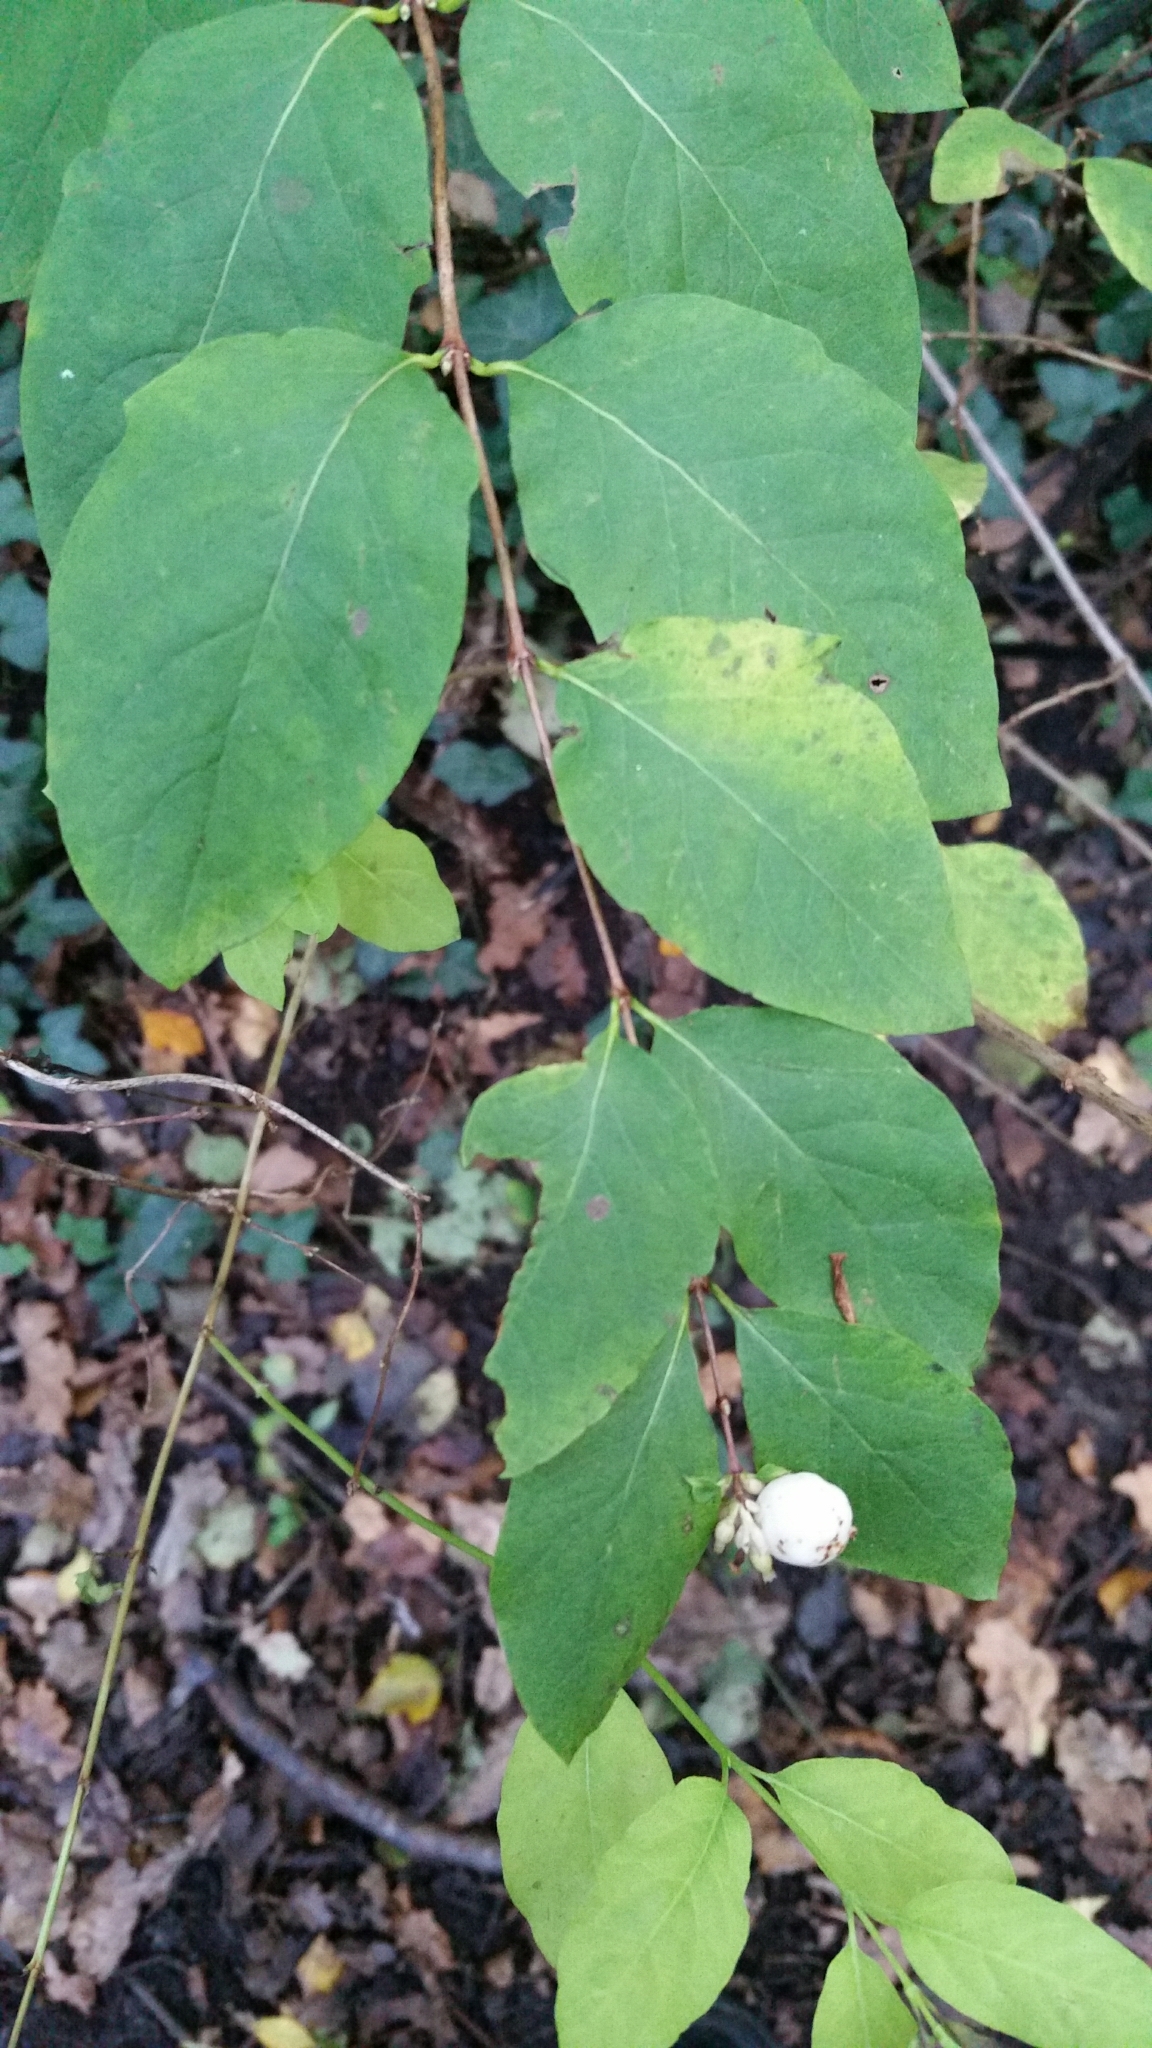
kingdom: Plantae
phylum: Tracheophyta
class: Magnoliopsida
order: Dipsacales
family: Caprifoliaceae
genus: Symphoricarpos
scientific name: Symphoricarpos albus
